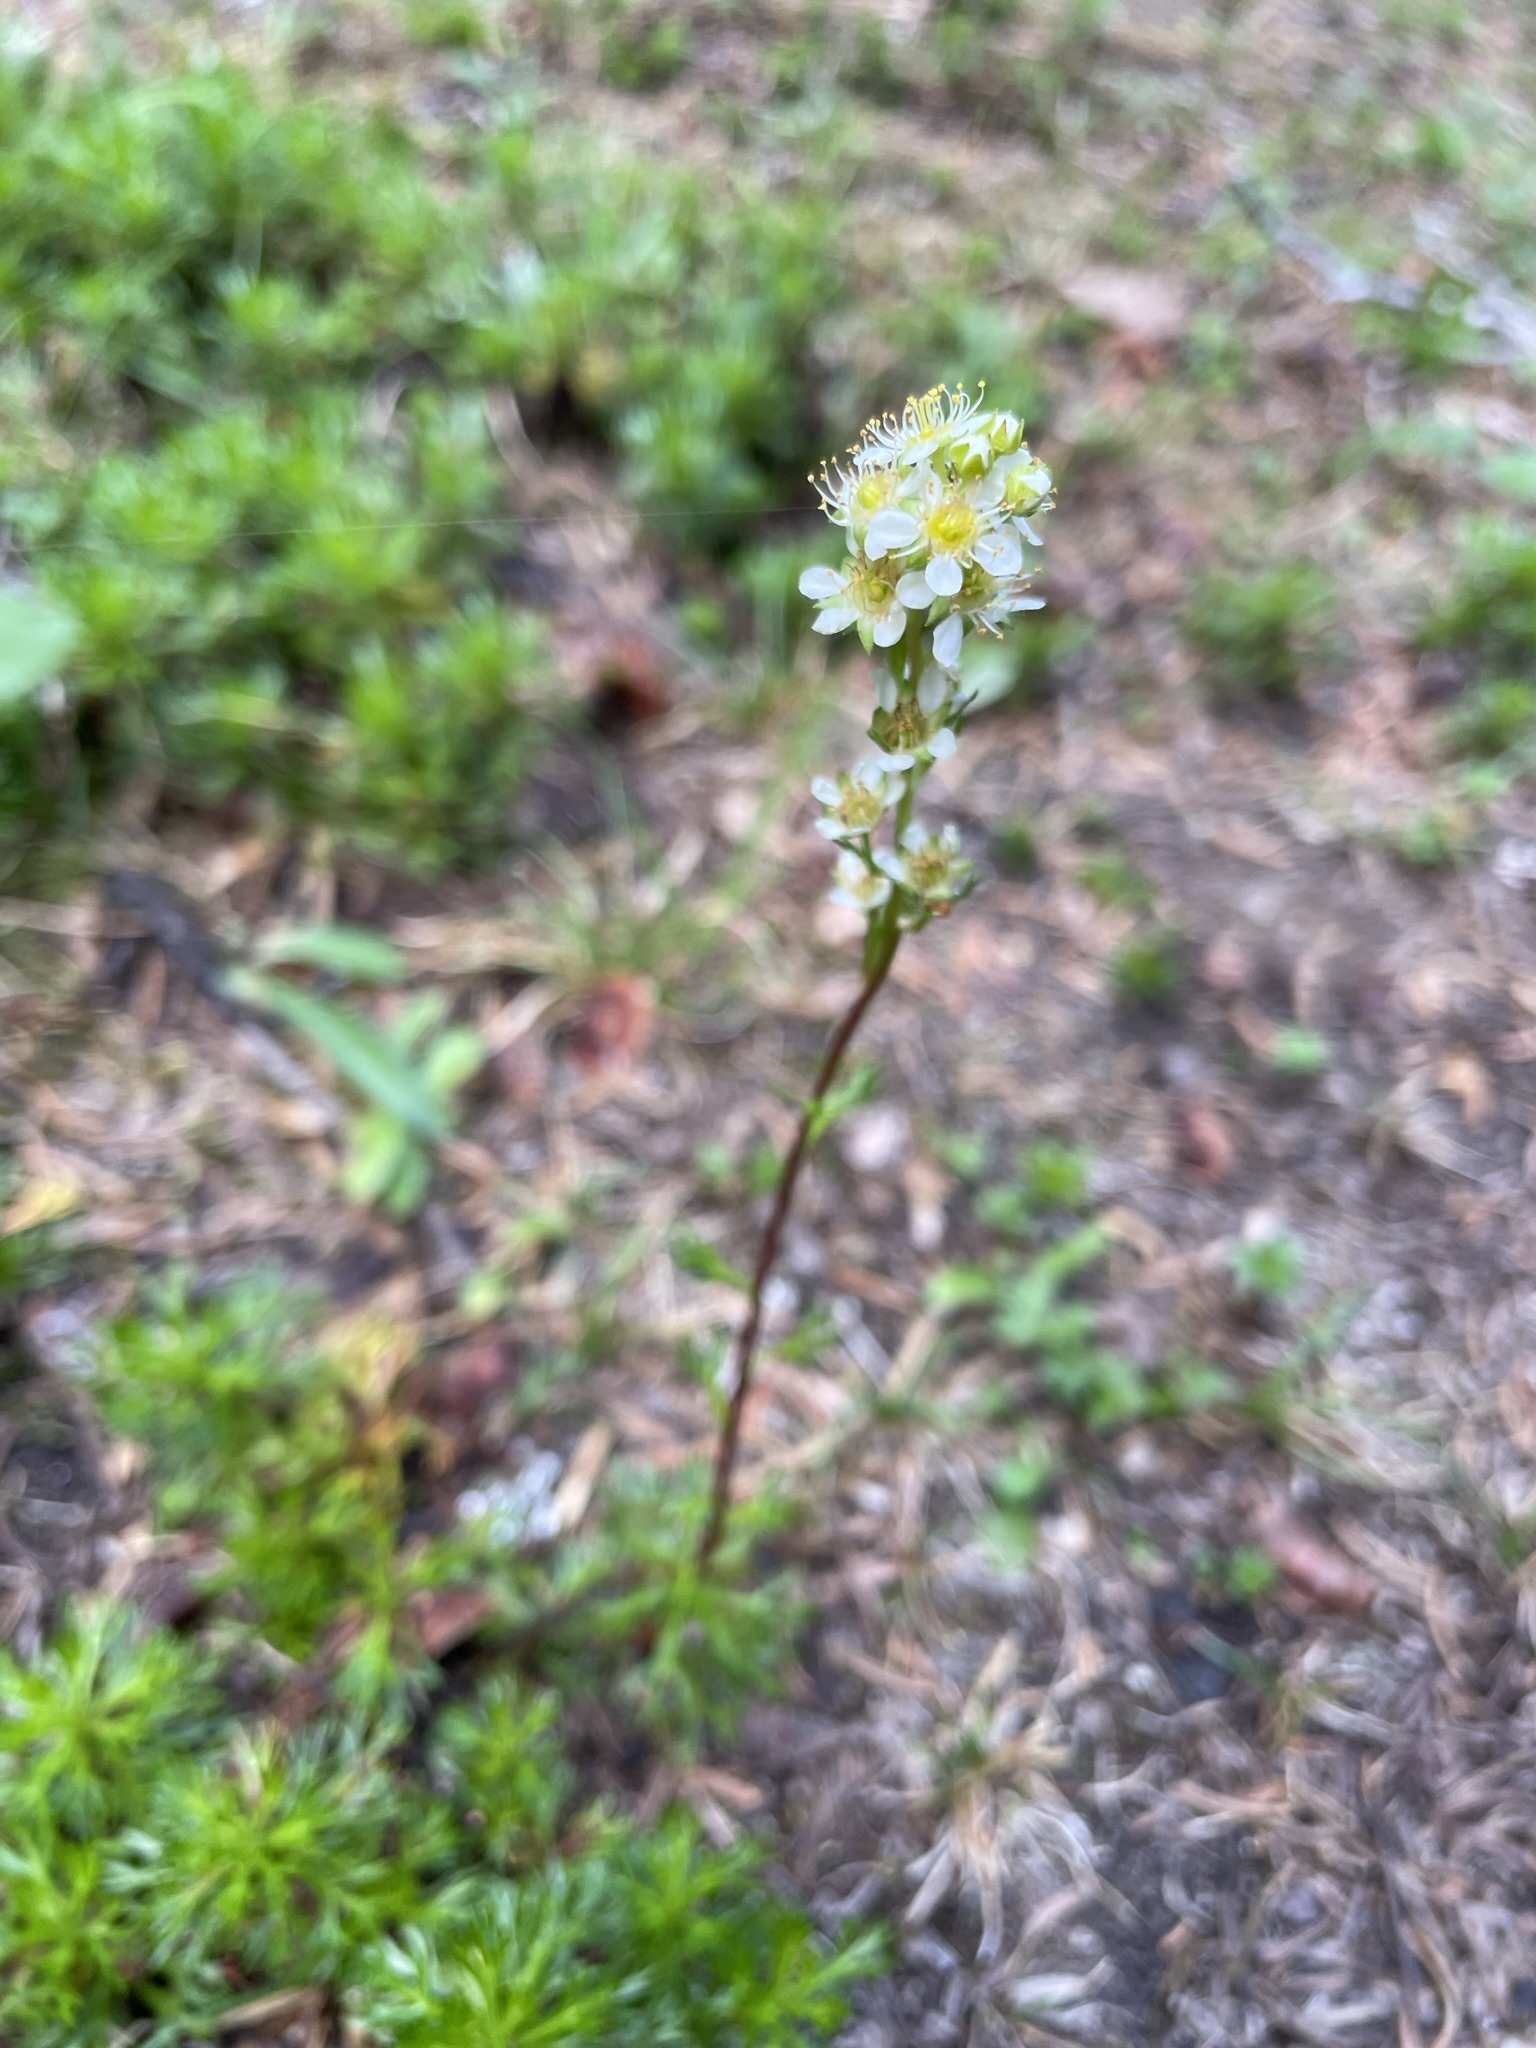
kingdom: Plantae
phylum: Tracheophyta
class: Magnoliopsida
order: Rosales
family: Rosaceae
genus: Luetkea
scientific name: Luetkea pectinata
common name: Partridgefoot
